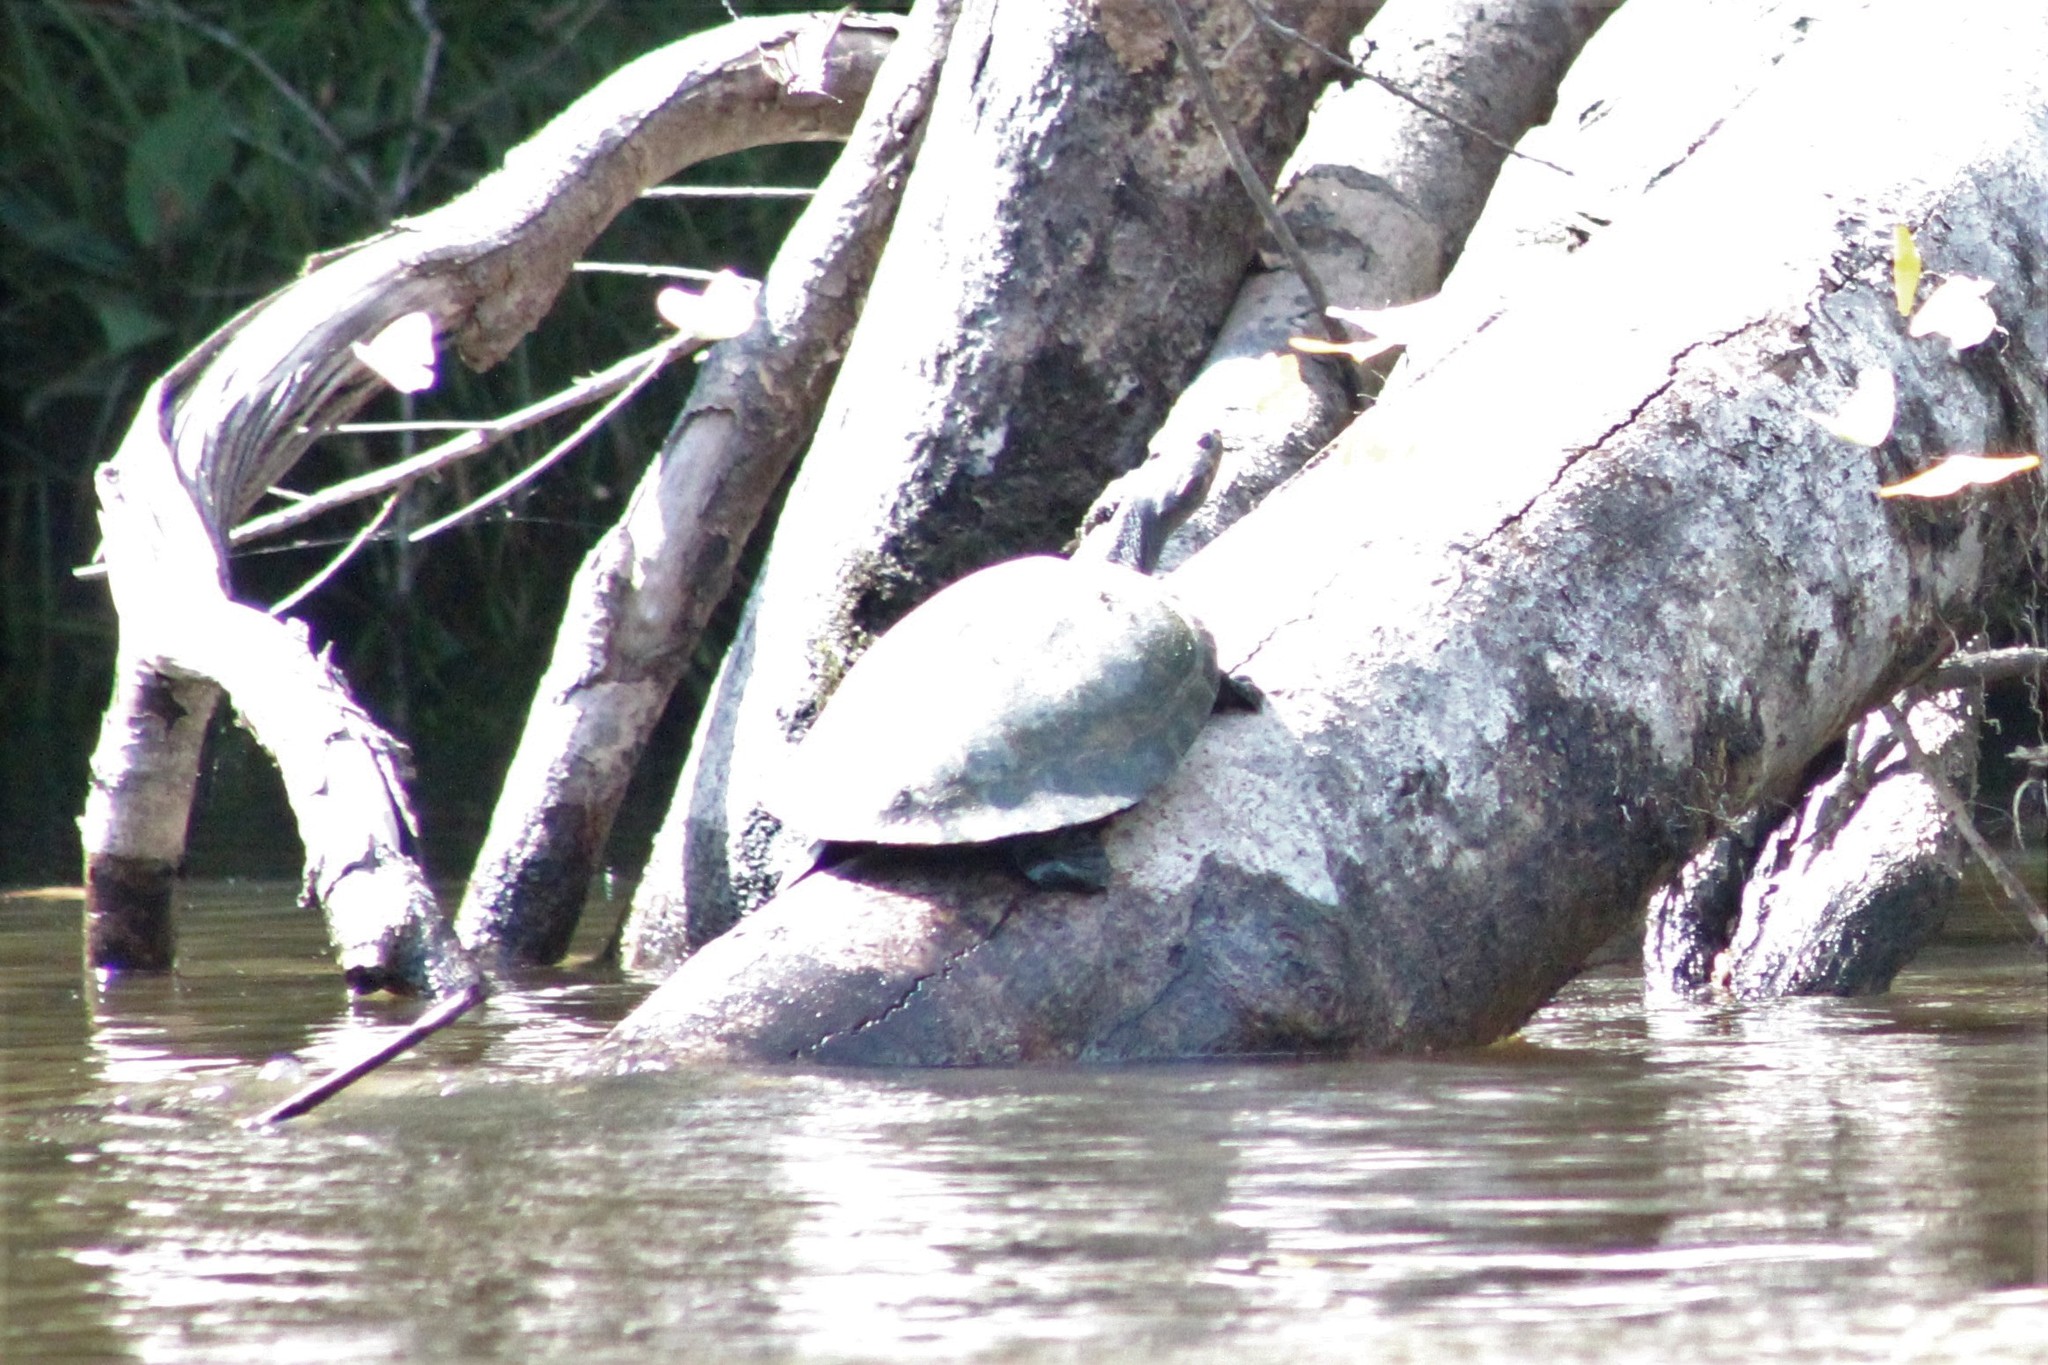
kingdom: Animalia
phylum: Chordata
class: Testudines
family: Podocnemididae
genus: Podocnemis
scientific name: Podocnemis expansa
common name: South american river turtle
